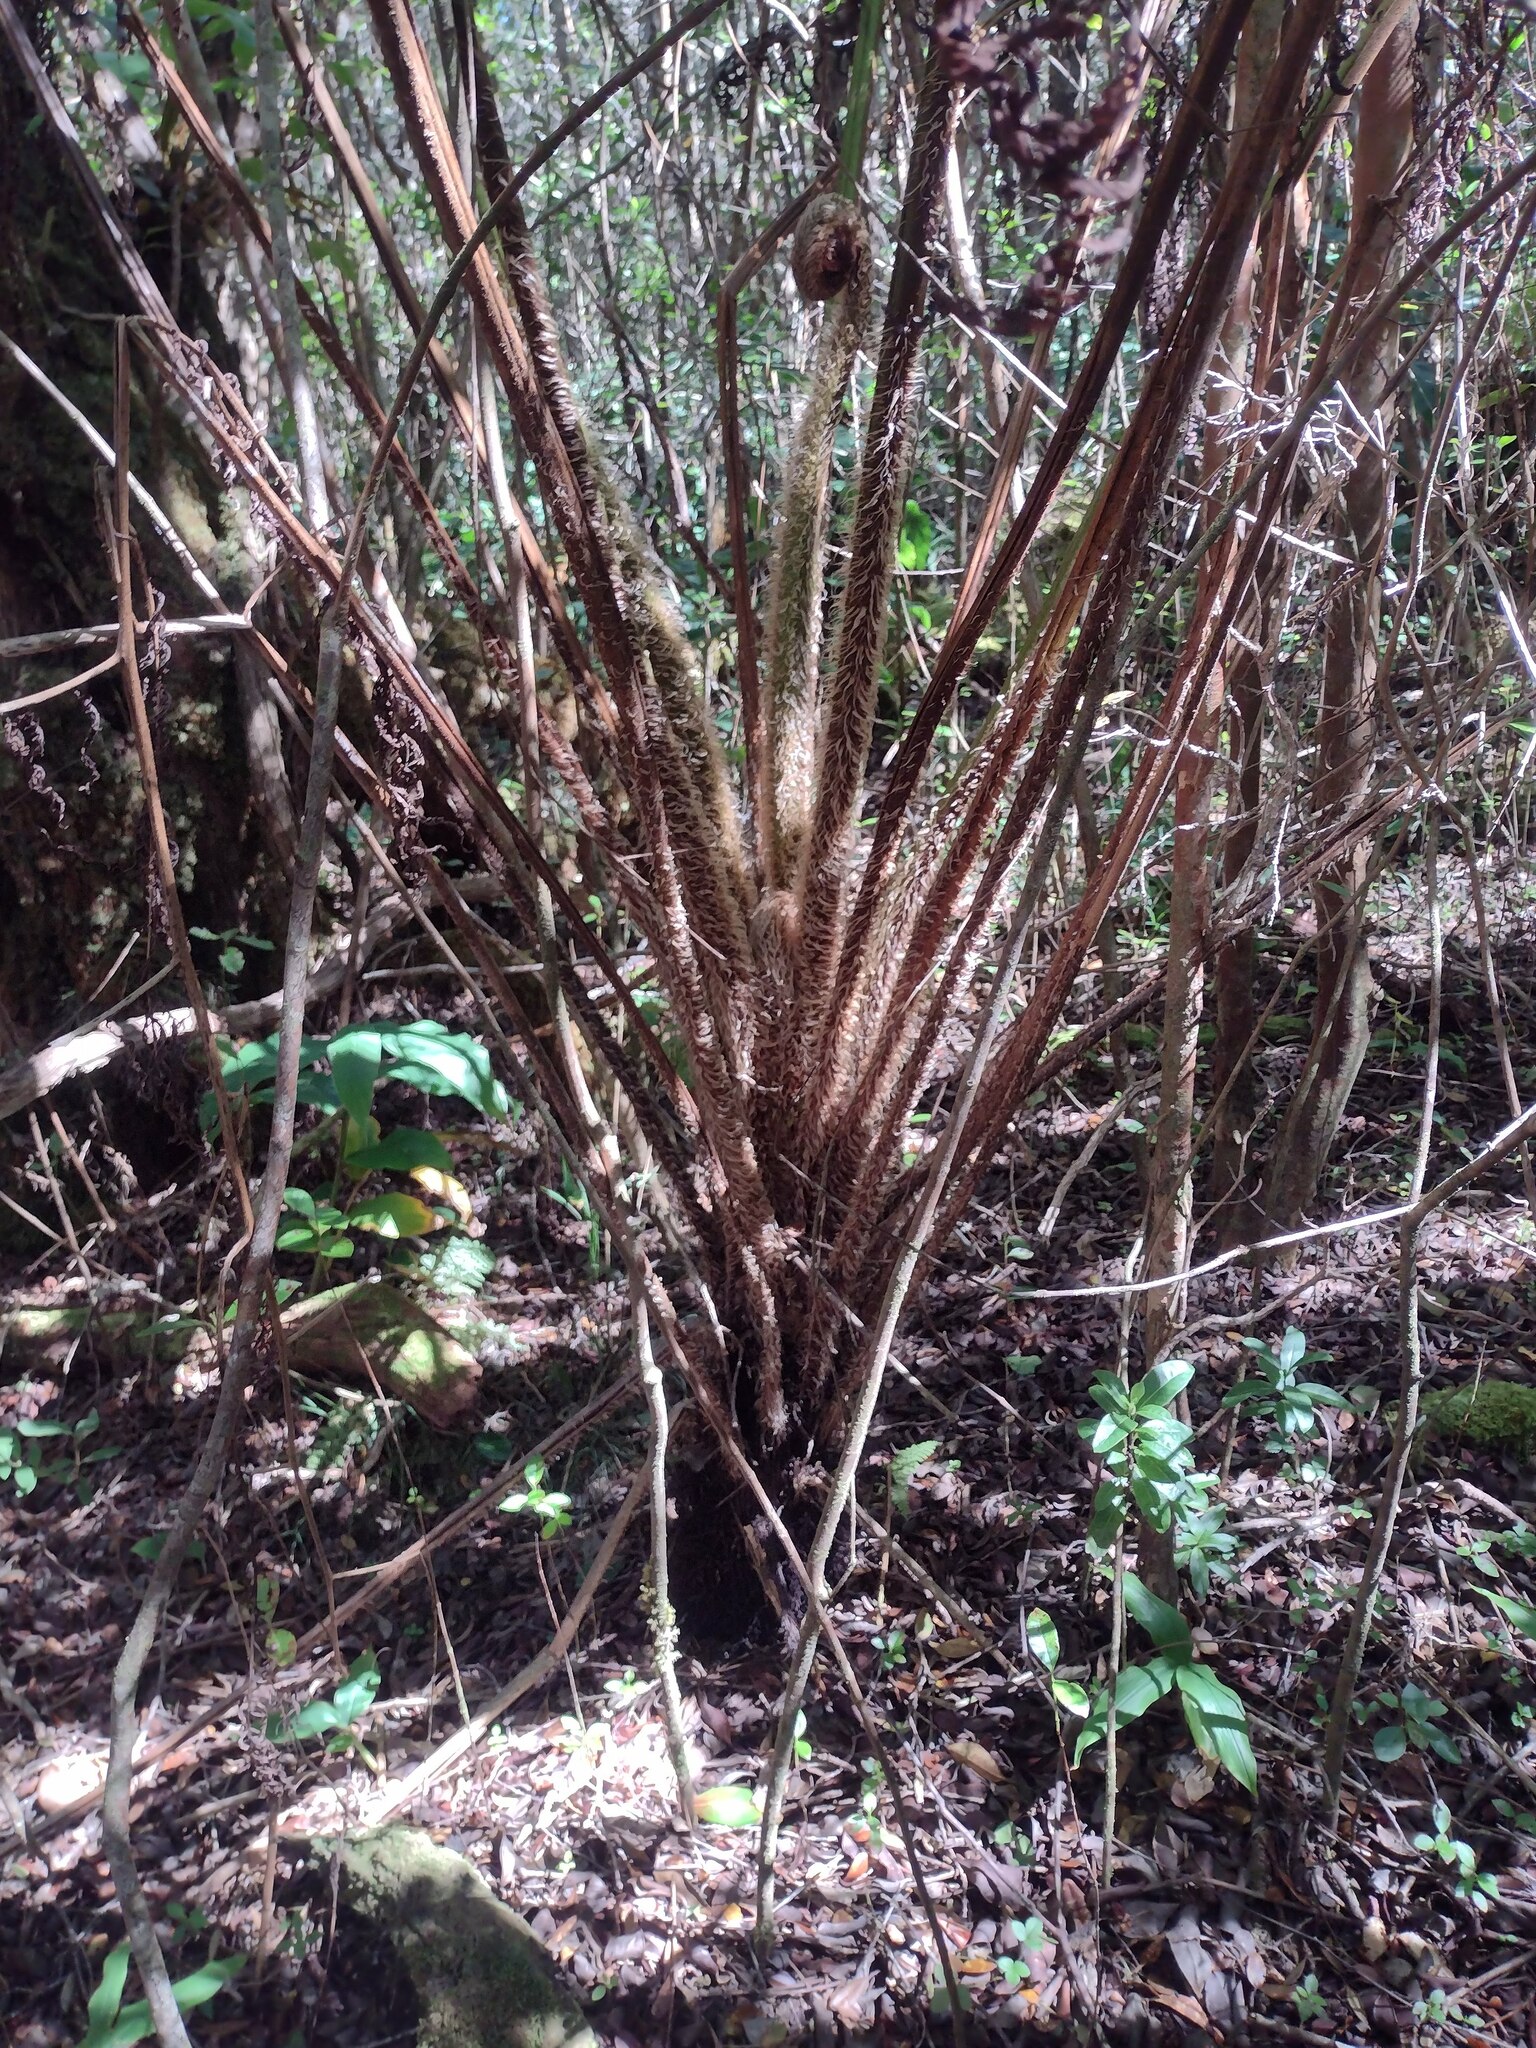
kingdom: Plantae
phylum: Tracheophyta
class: Polypodiopsida
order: Cyatheales
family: Cyatheaceae
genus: Sphaeropteris
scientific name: Sphaeropteris cooperi
